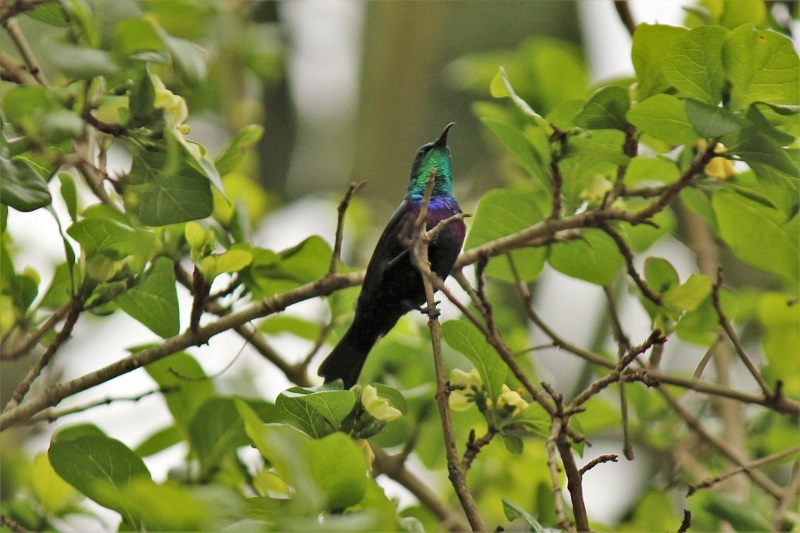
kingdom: Animalia
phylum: Chordata
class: Aves
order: Passeriformes
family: Nectariniidae
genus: Cinnyris
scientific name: Cinnyris bifasciatus
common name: Purple-banded sunbird
